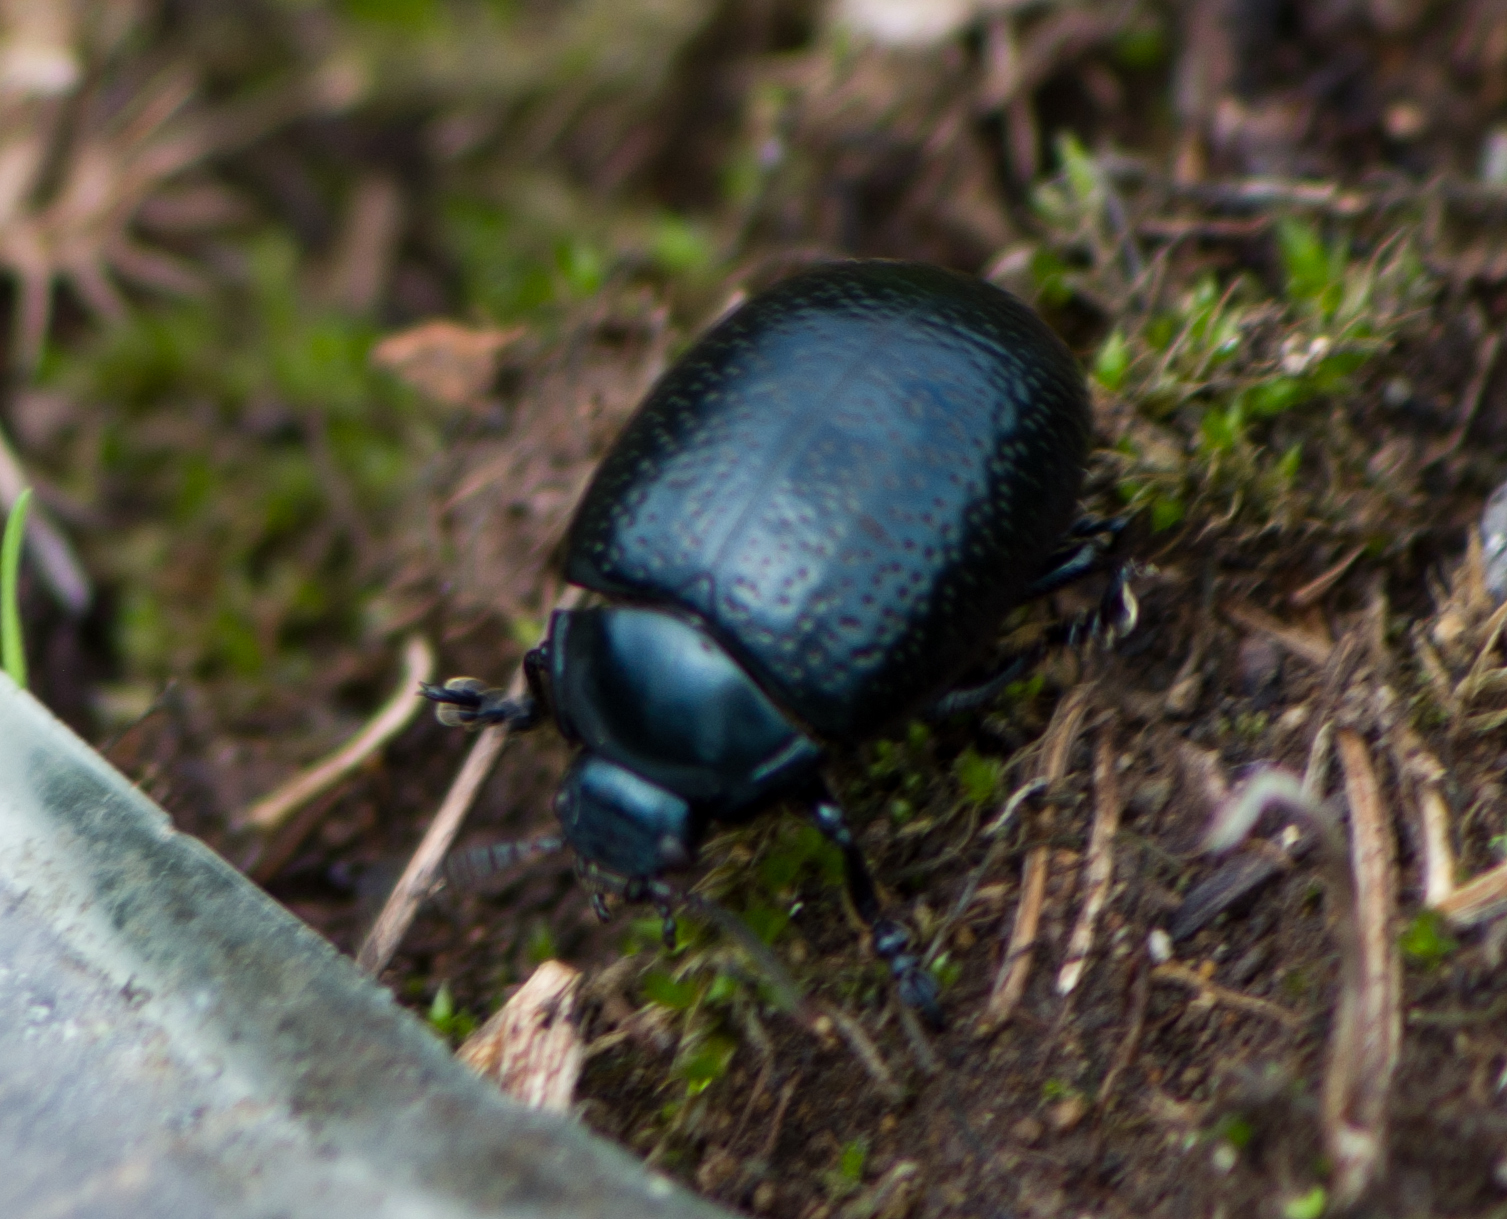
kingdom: Animalia
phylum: Arthropoda
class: Insecta
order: Coleoptera
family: Chrysomelidae
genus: Chrysolina
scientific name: Chrysolina vernalis
